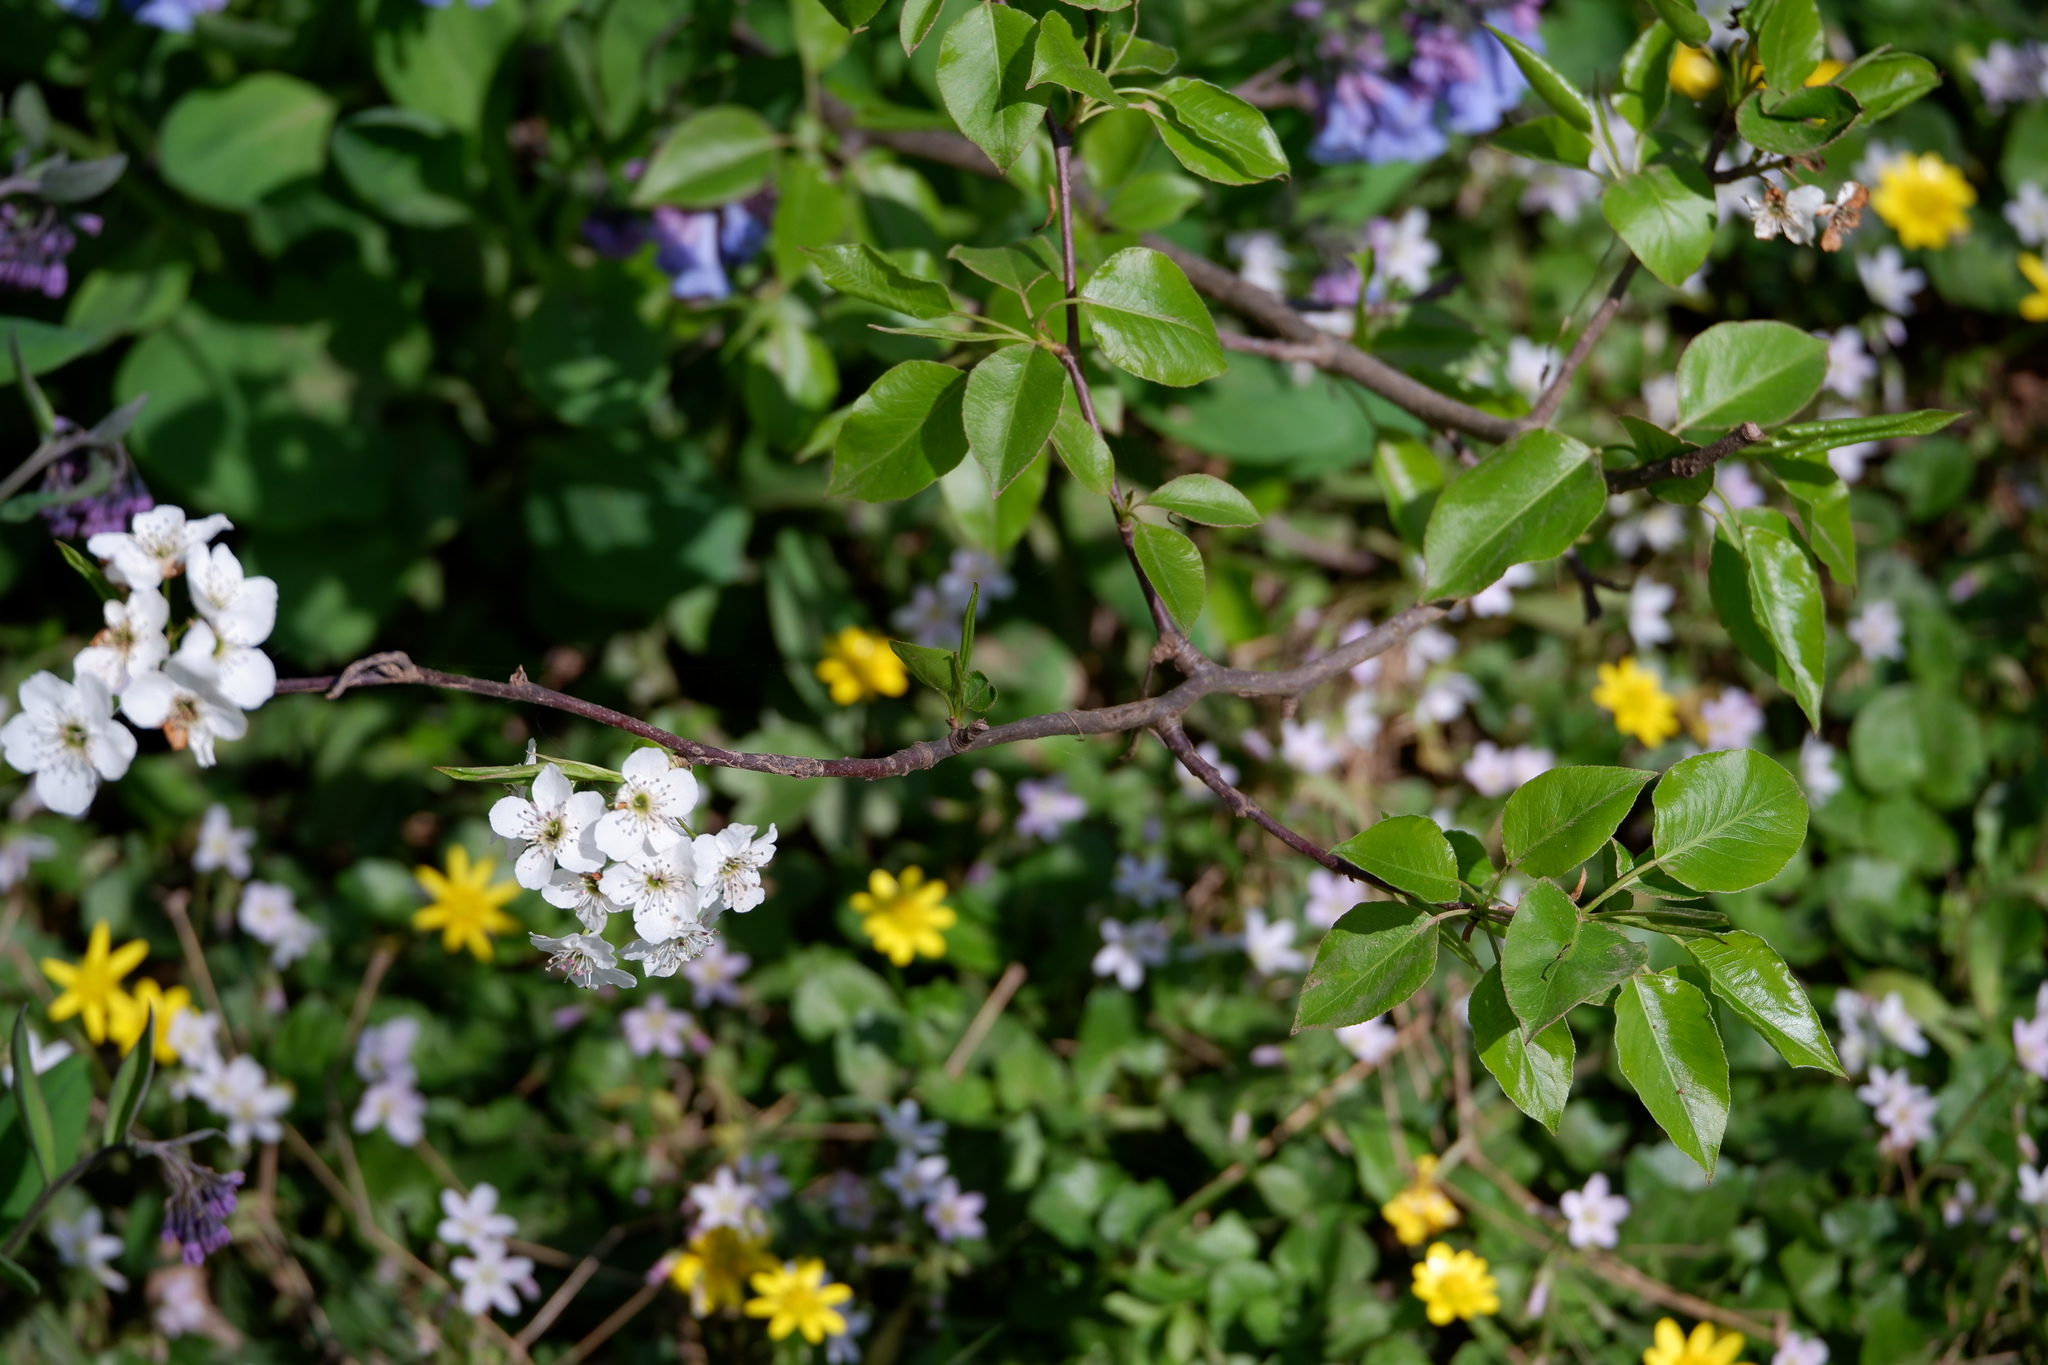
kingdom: Plantae
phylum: Tracheophyta
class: Magnoliopsida
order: Rosales
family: Rosaceae
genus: Pyrus
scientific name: Pyrus calleryana
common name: Callery pear
